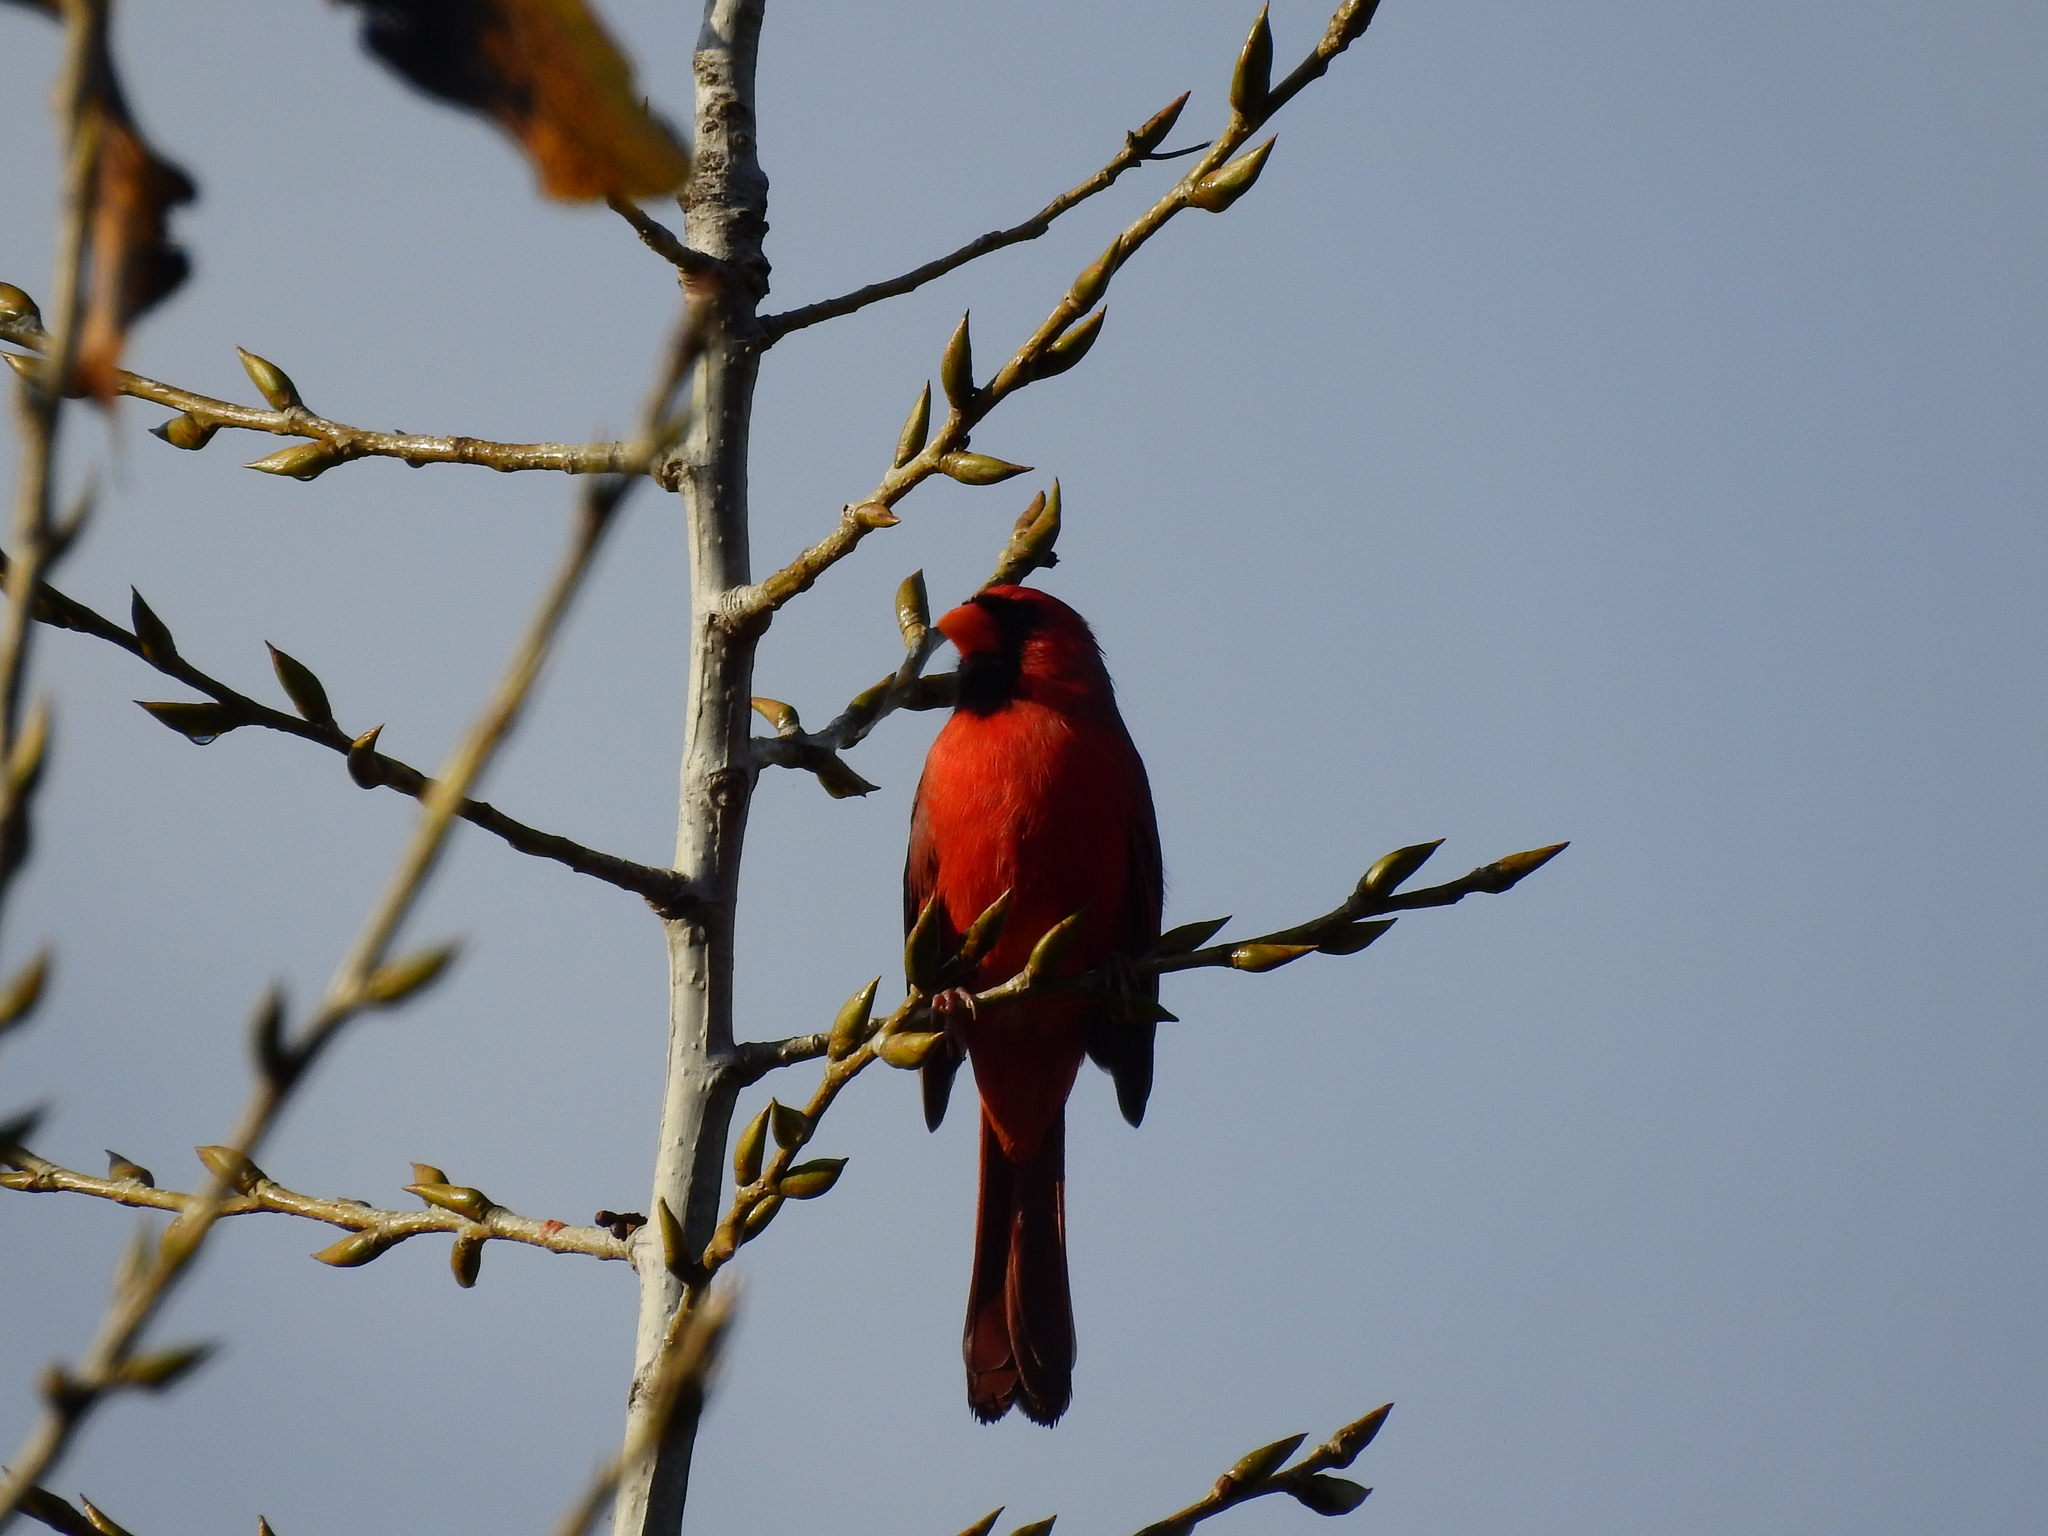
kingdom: Animalia
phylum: Chordata
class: Aves
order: Passeriformes
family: Cardinalidae
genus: Cardinalis
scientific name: Cardinalis cardinalis
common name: Northern cardinal
